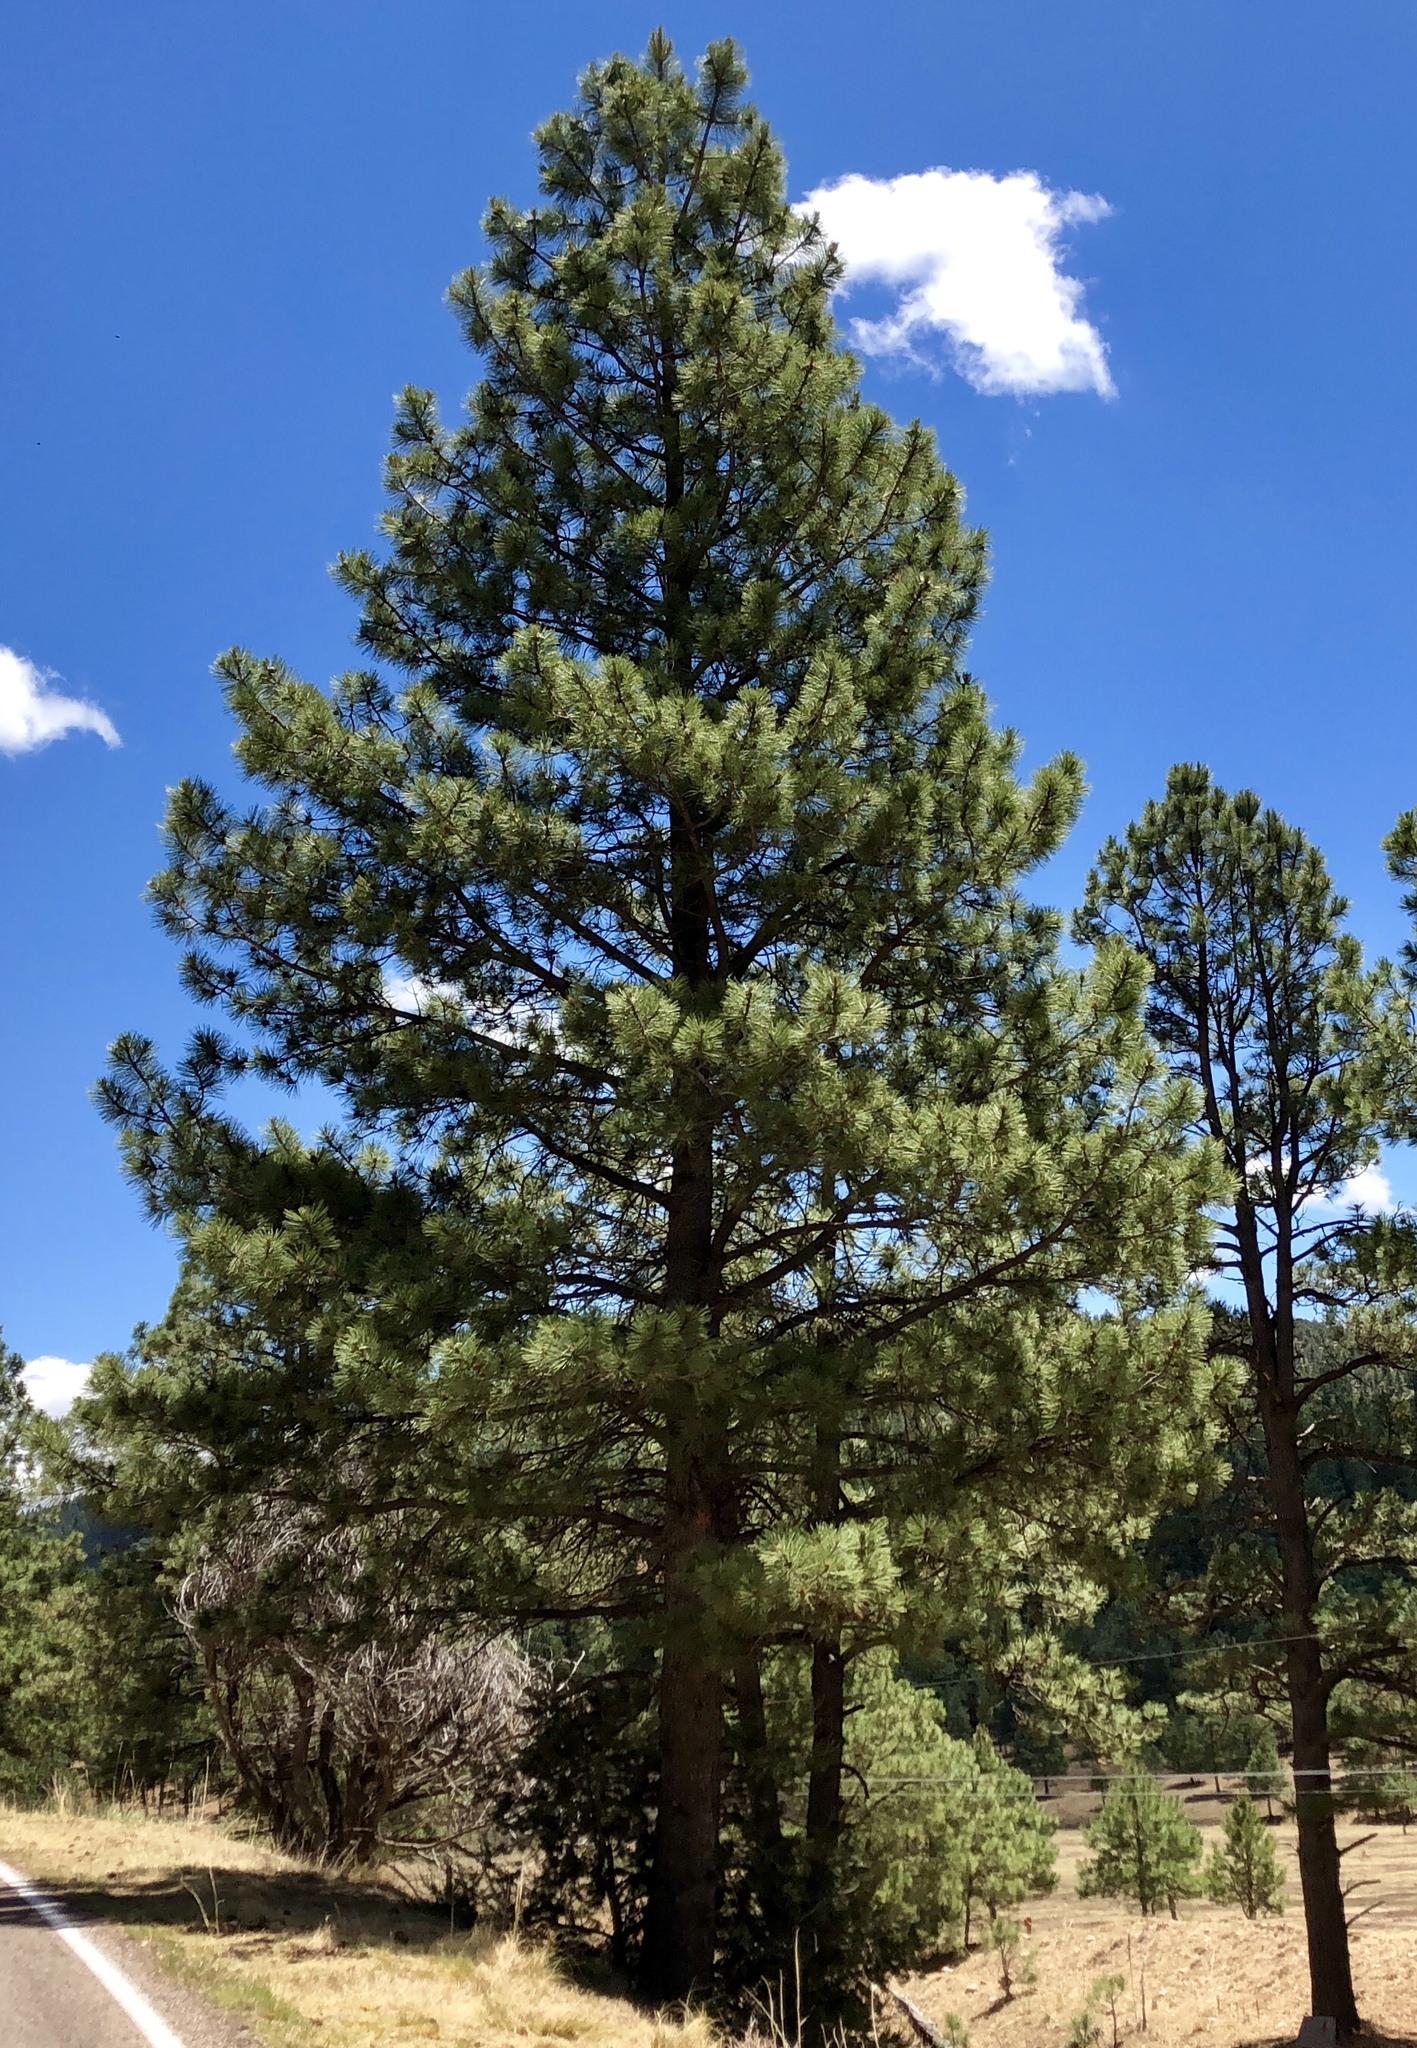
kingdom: Plantae
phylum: Tracheophyta
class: Pinopsida
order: Pinales
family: Pinaceae
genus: Pinus
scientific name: Pinus ponderosa
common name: Western yellow-pine
